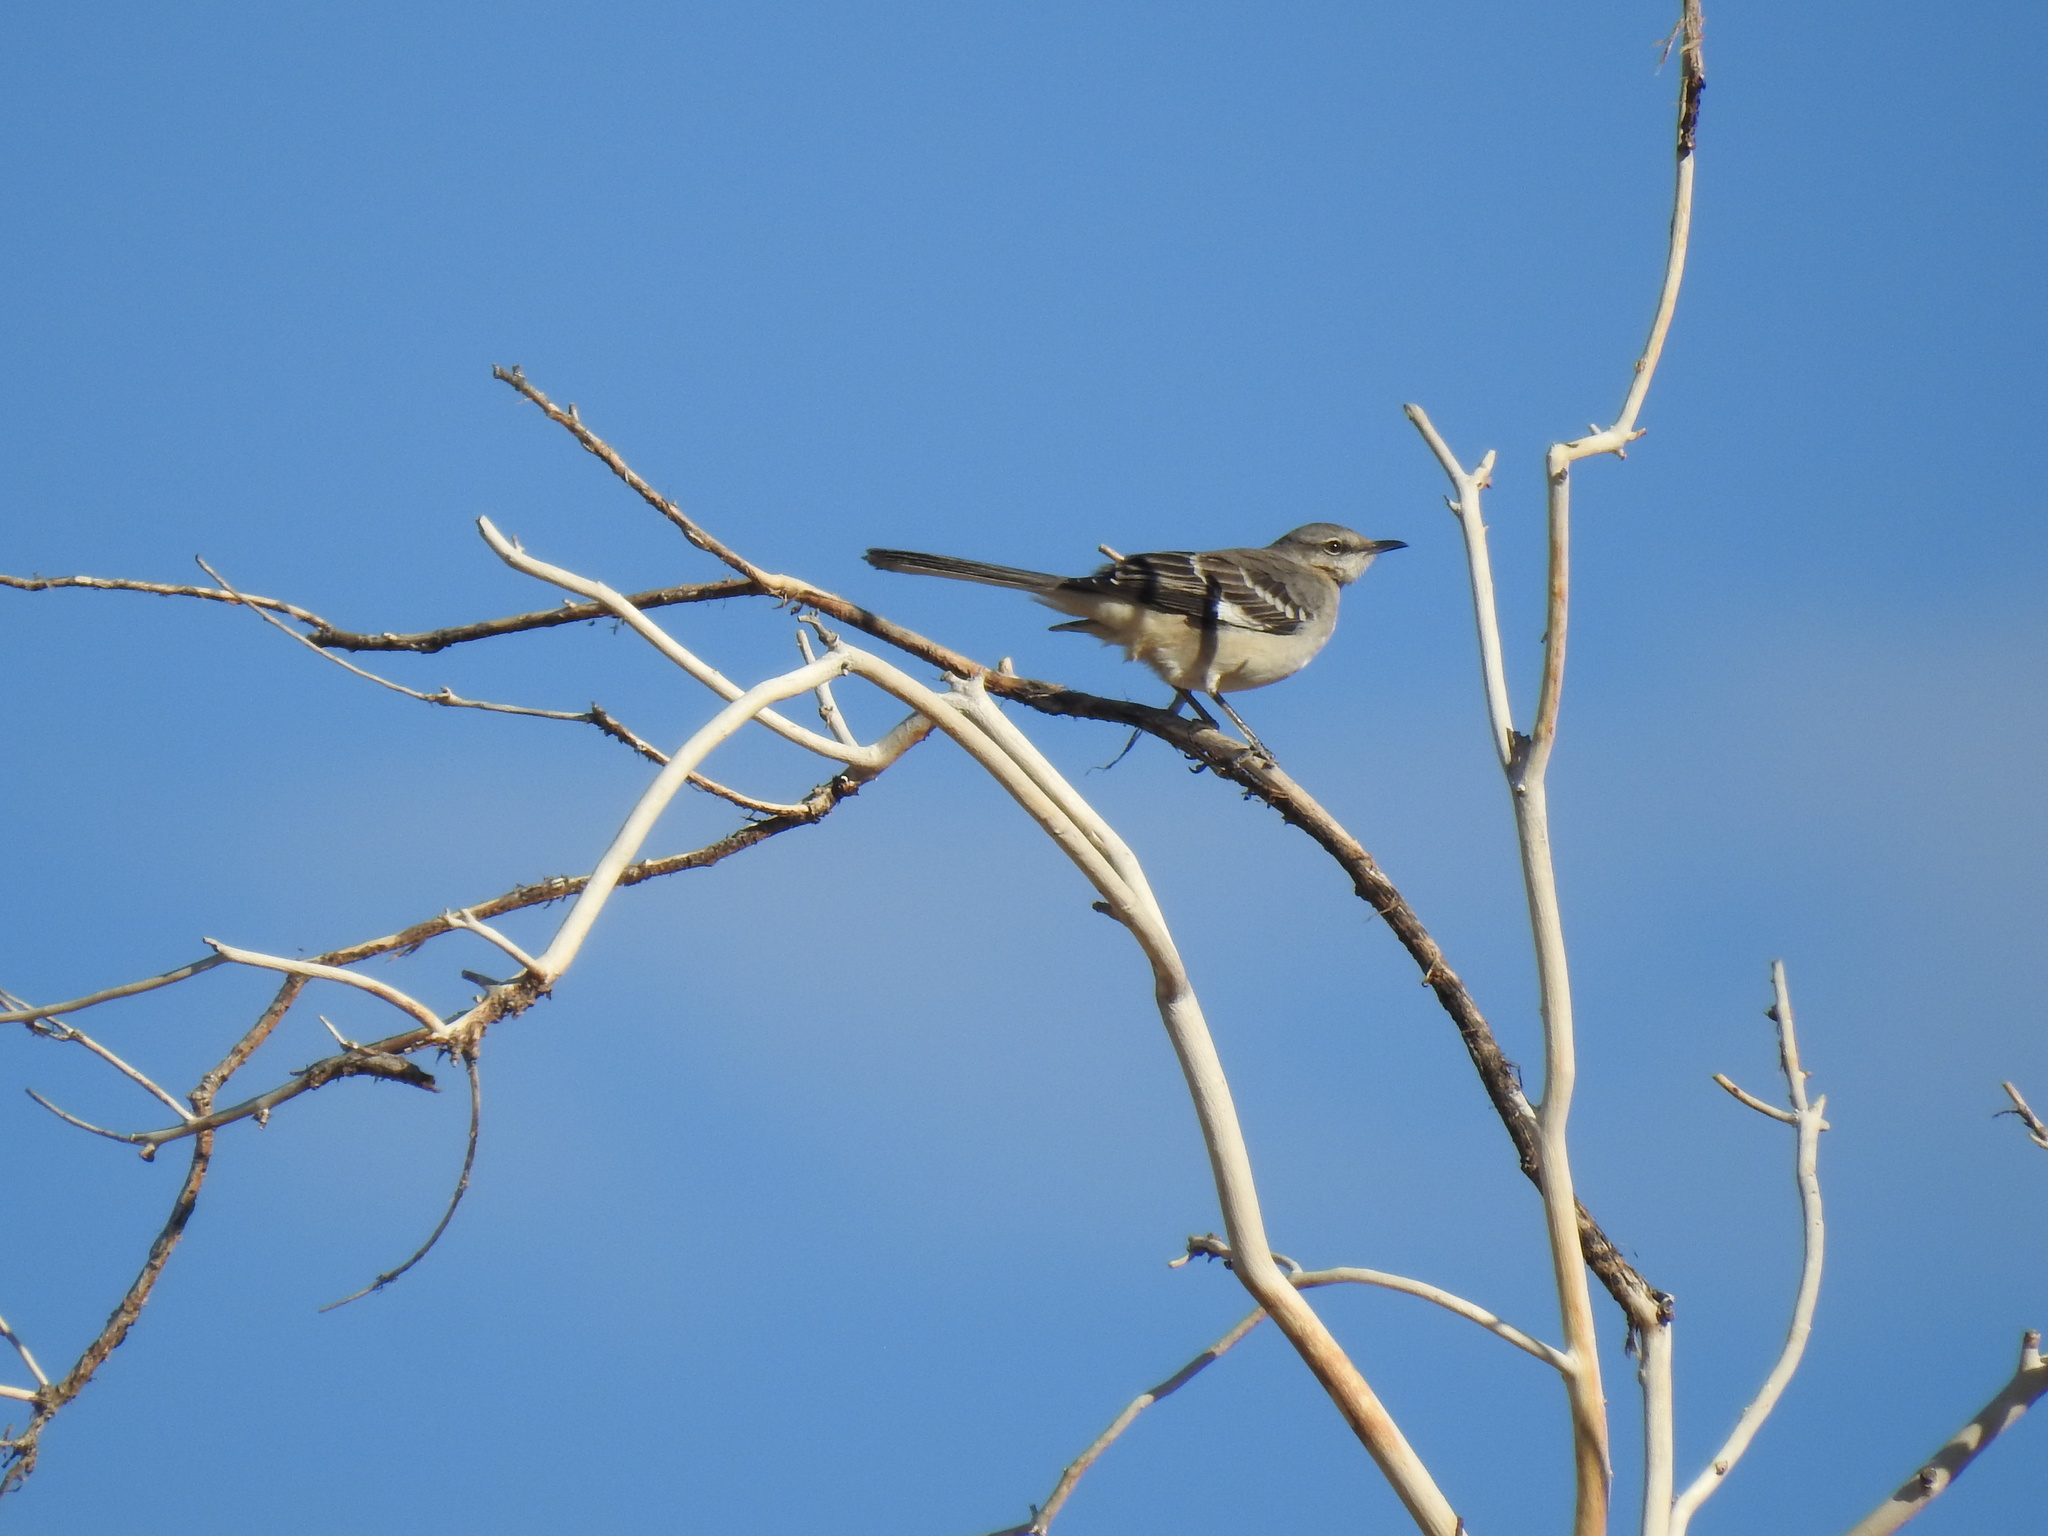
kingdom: Animalia
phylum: Chordata
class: Aves
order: Passeriformes
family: Mimidae
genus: Mimus
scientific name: Mimus polyglottos
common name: Northern mockingbird
